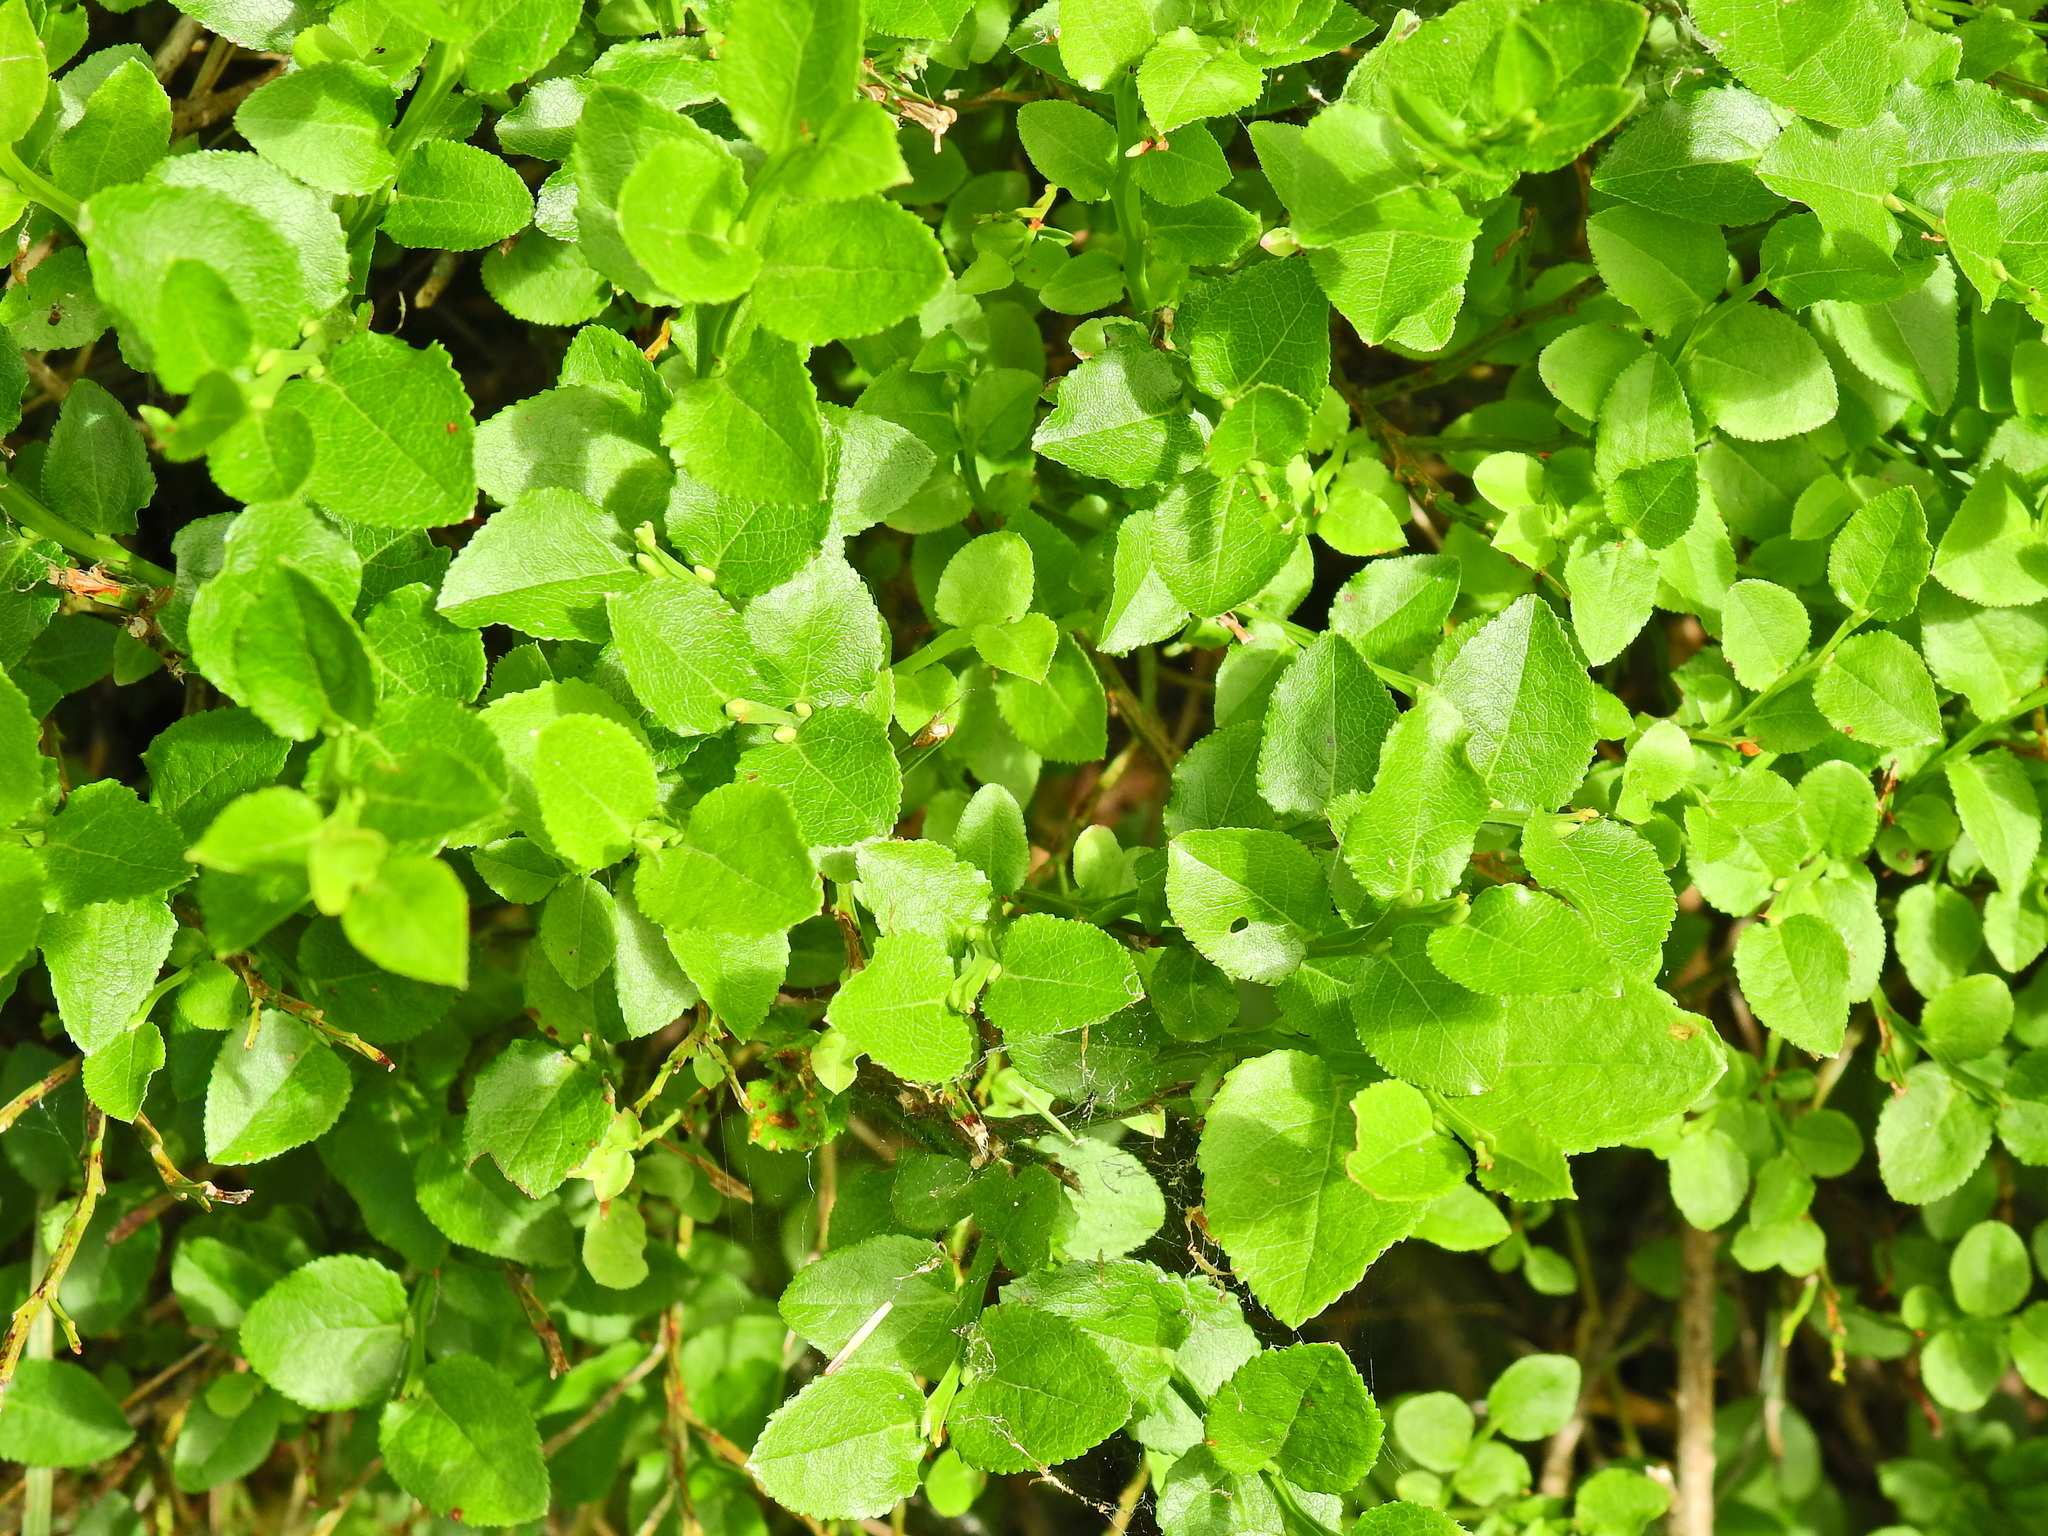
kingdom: Plantae
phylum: Tracheophyta
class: Magnoliopsida
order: Ericales
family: Ericaceae
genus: Vaccinium
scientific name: Vaccinium myrtillus
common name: Bilberry
